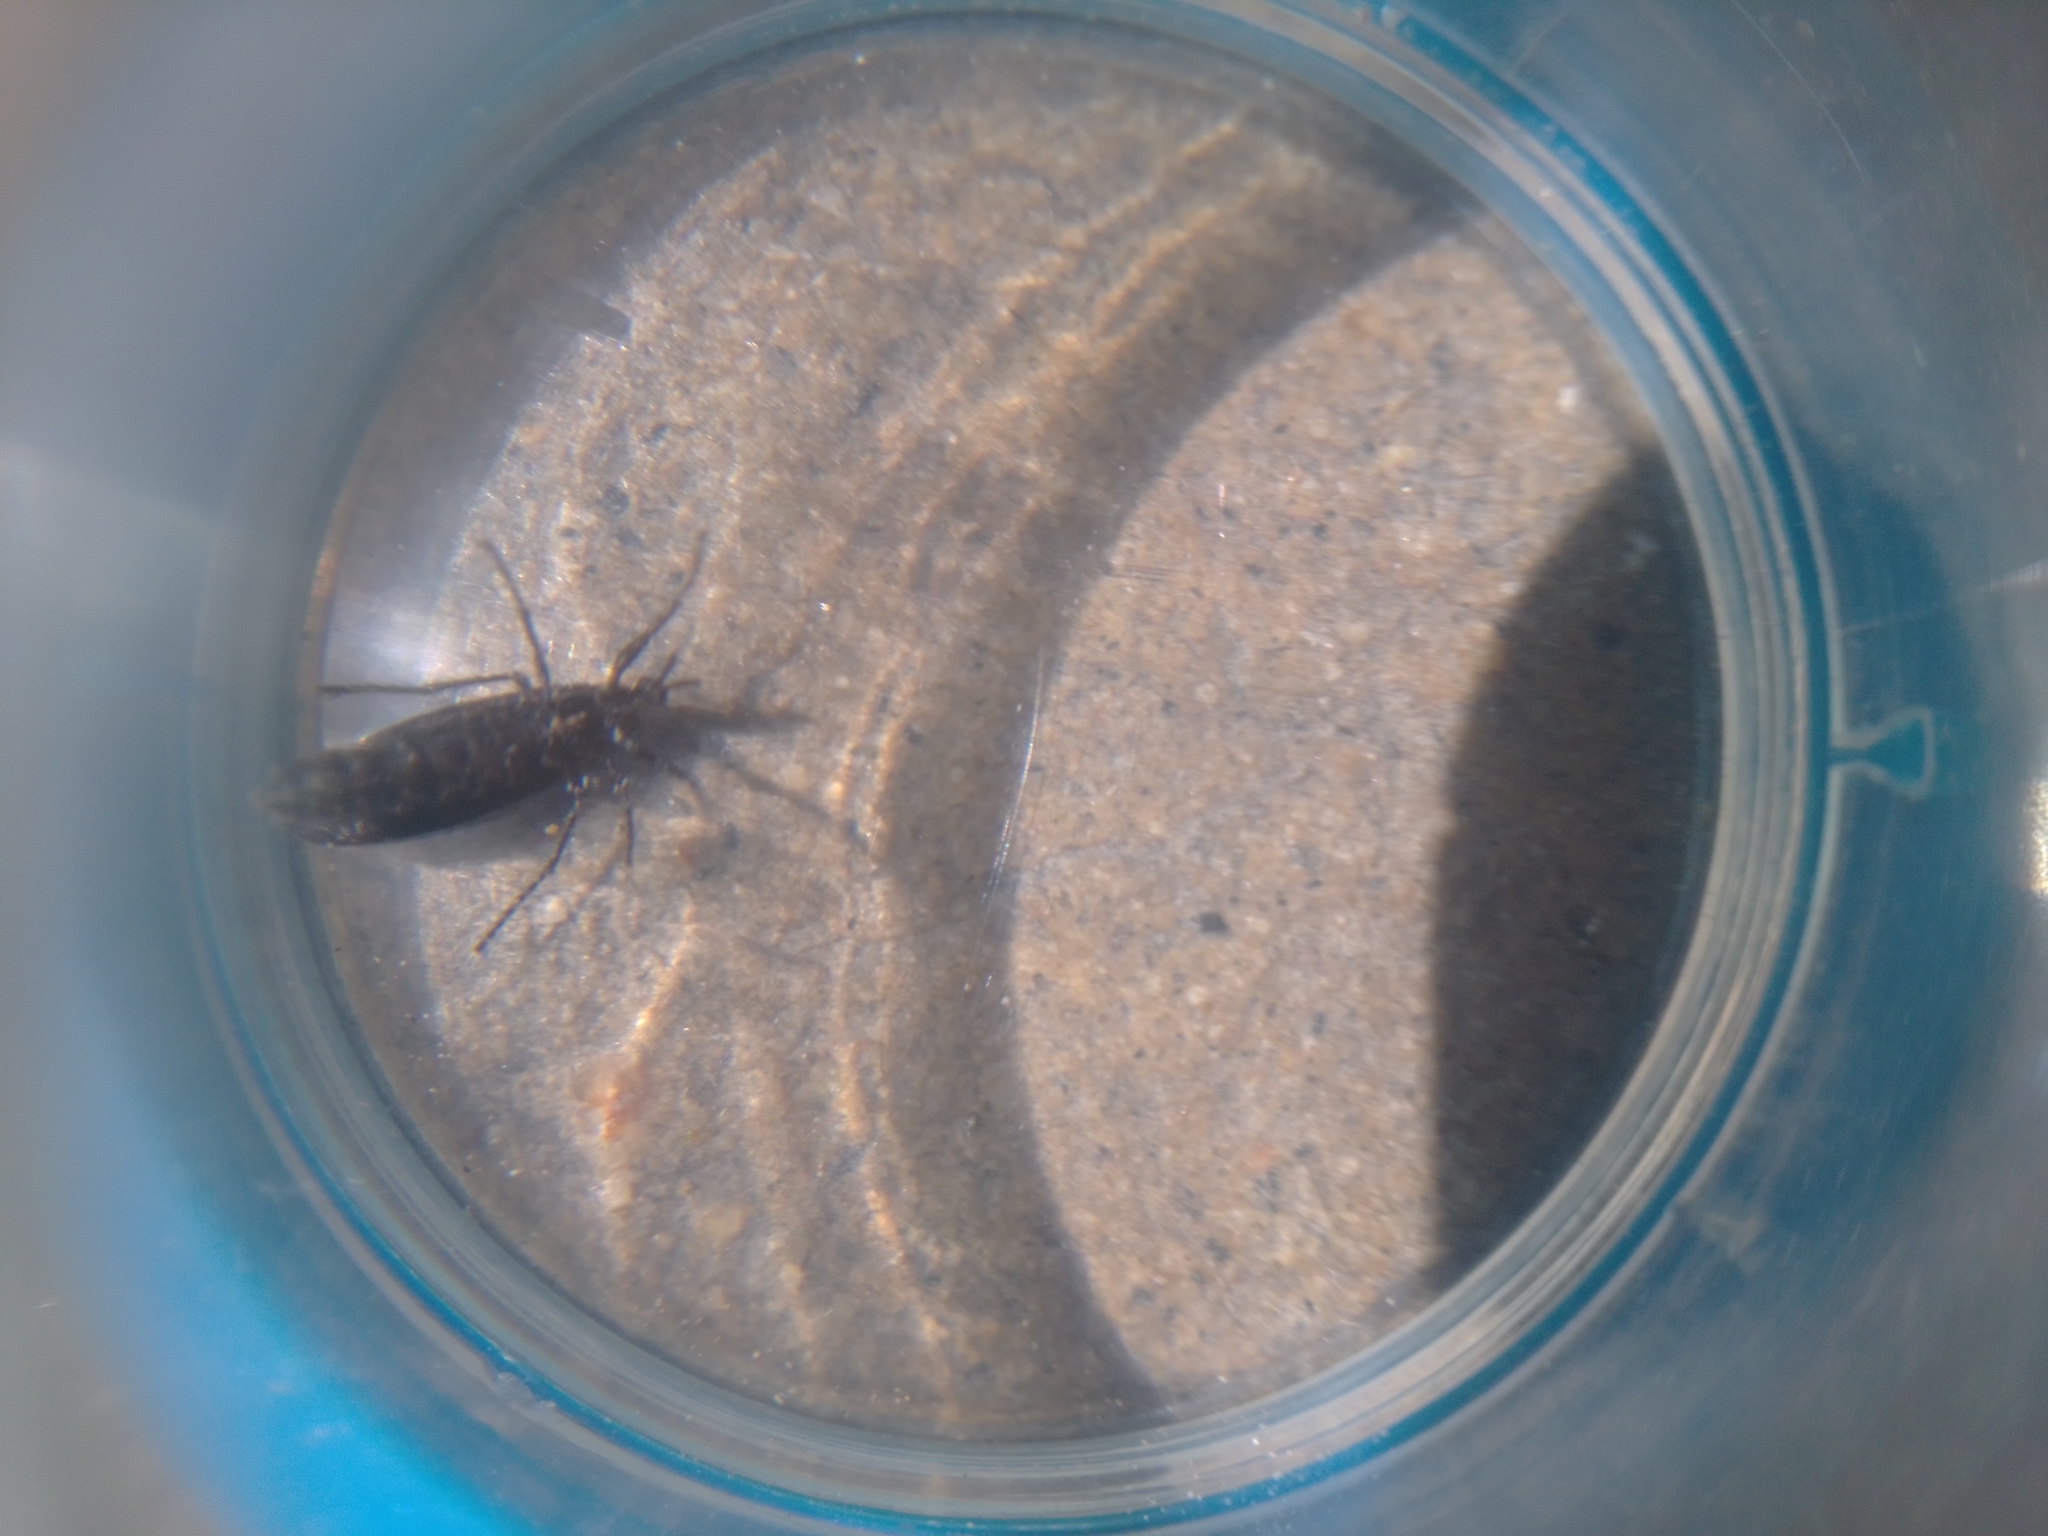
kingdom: Animalia
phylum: Arthropoda
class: Insecta
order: Diptera
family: Bibionidae
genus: Dilophus
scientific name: Dilophus orbatus
